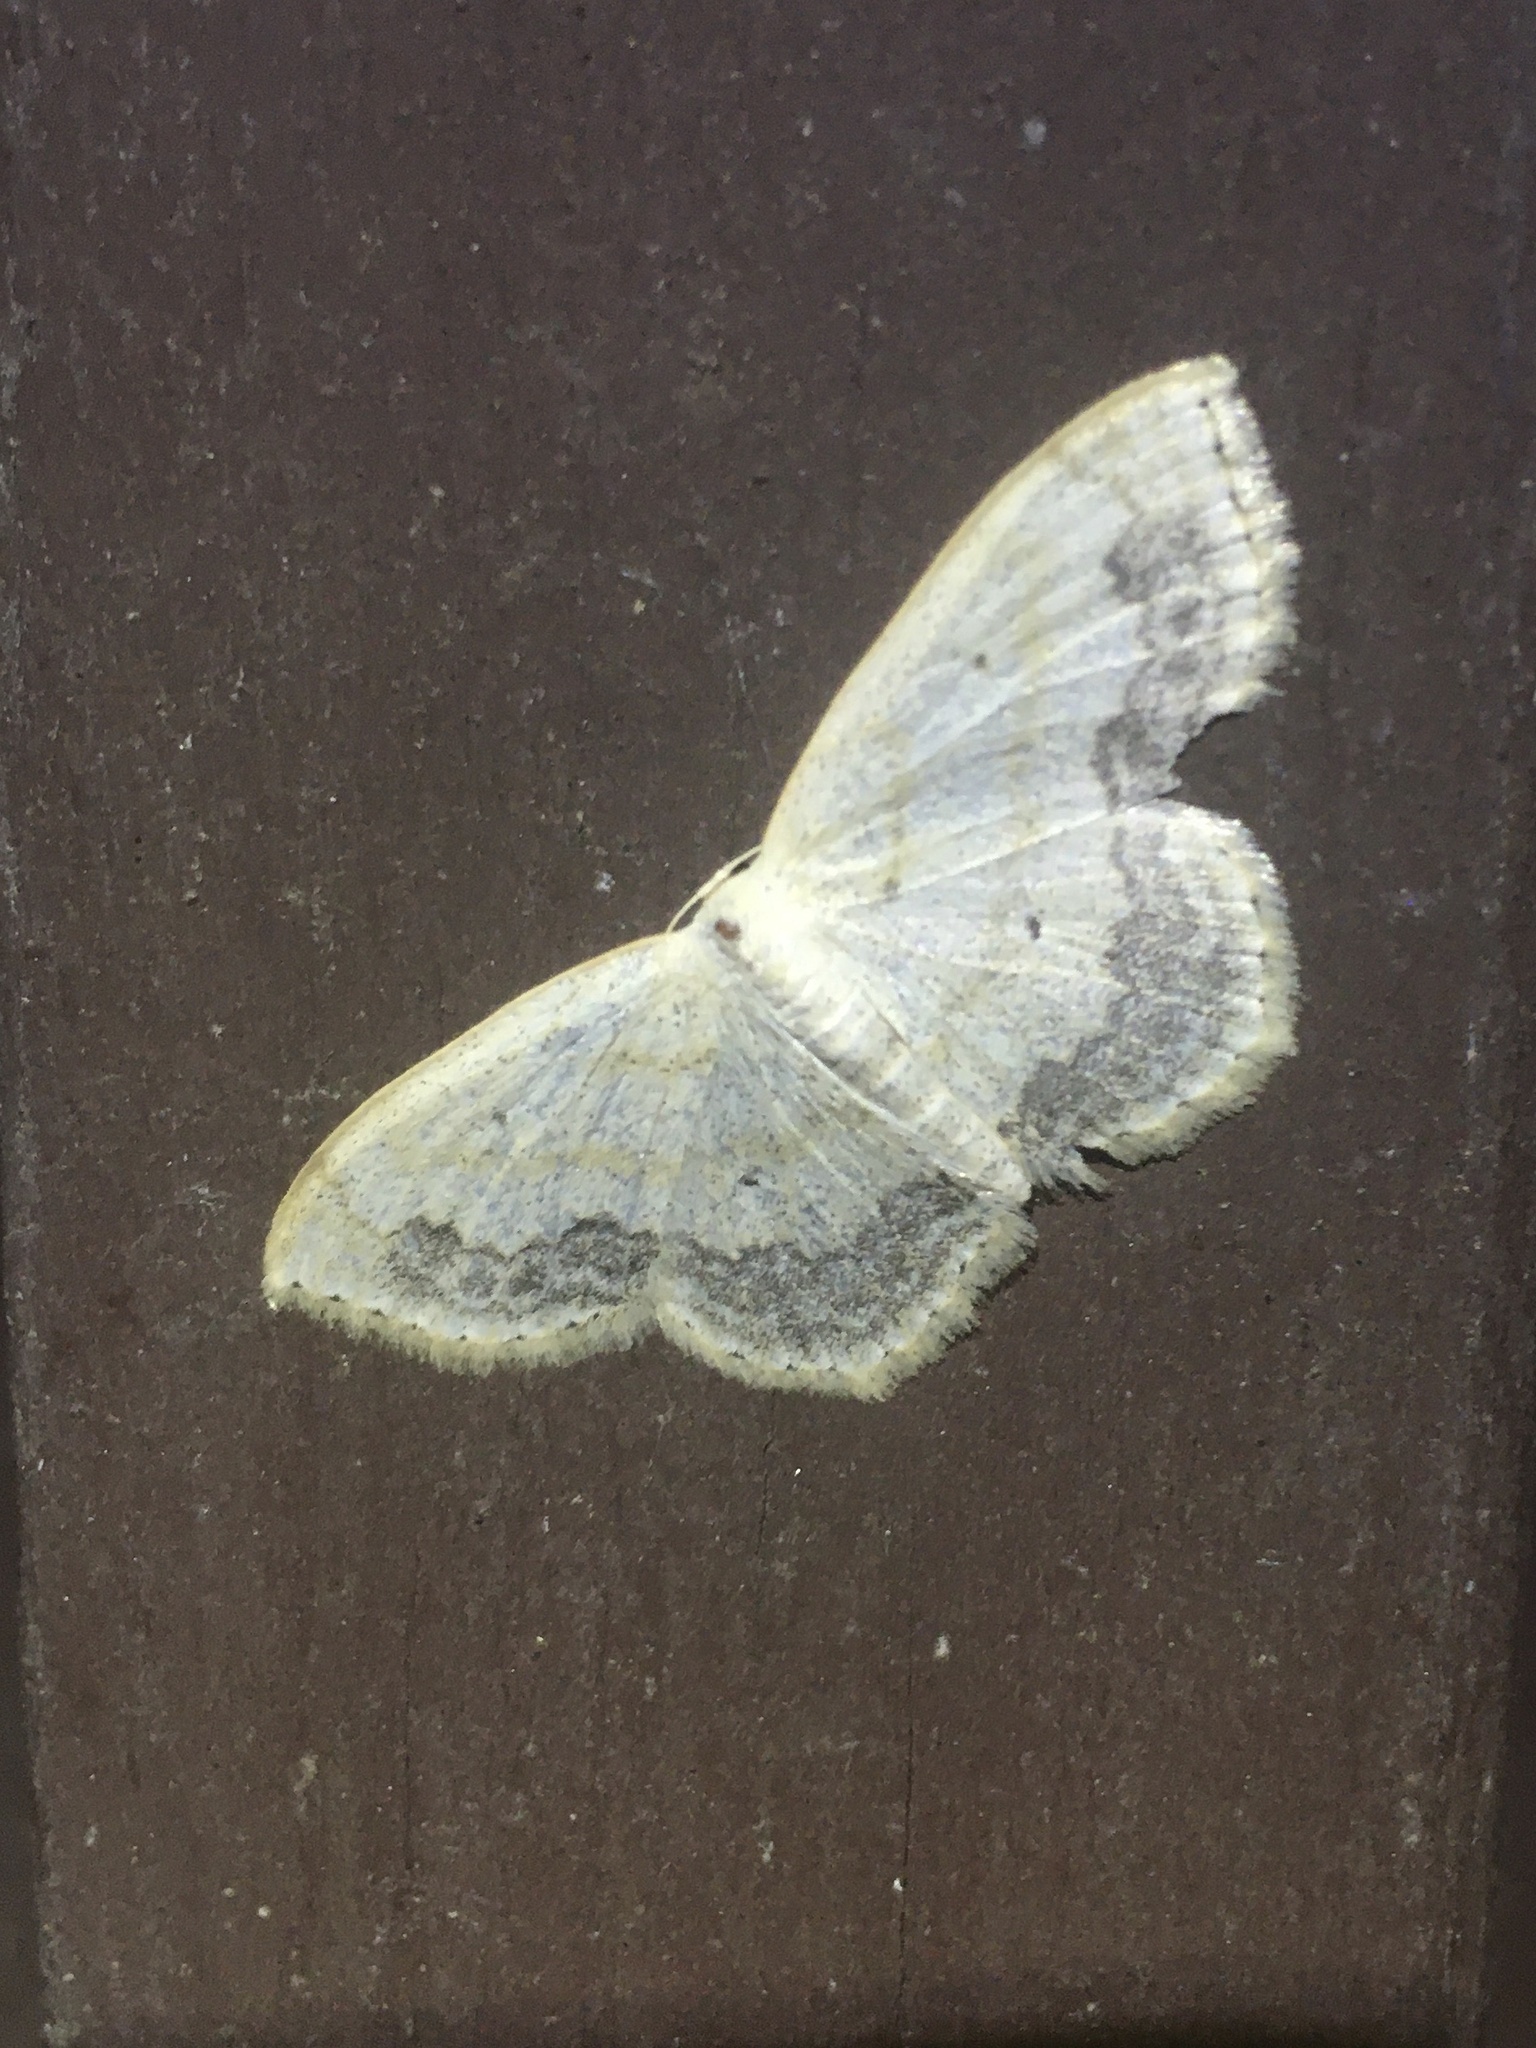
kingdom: Animalia
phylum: Arthropoda
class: Insecta
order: Lepidoptera
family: Geometridae
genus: Scopula
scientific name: Scopula limboundata
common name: Large lace border
